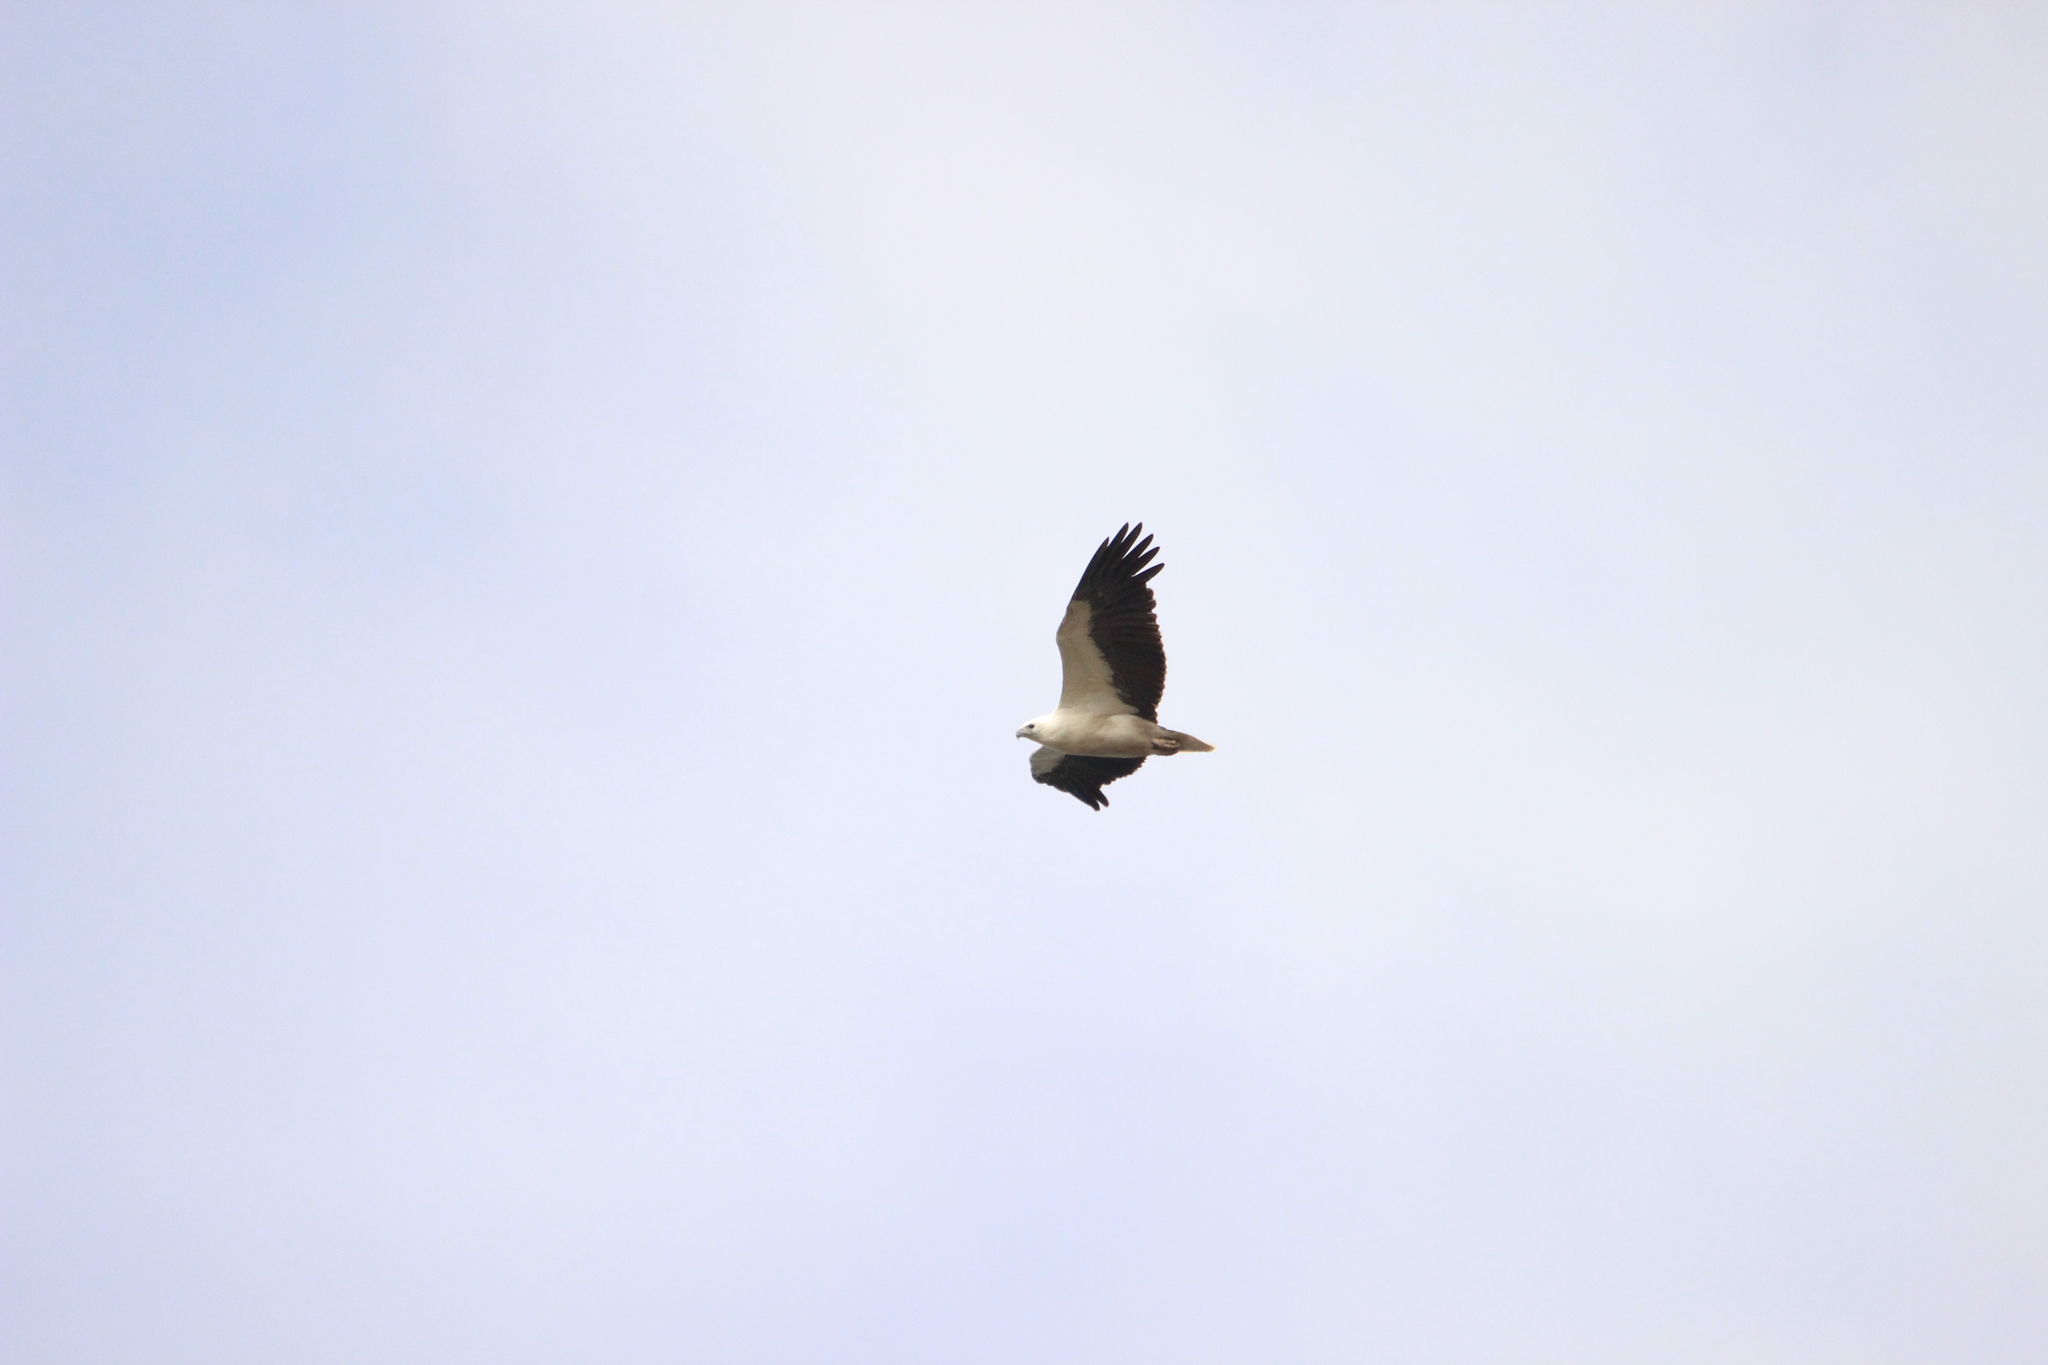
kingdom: Animalia
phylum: Chordata
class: Aves
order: Accipitriformes
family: Accipitridae
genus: Haliaeetus
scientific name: Haliaeetus leucogaster
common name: White-bellied sea eagle
